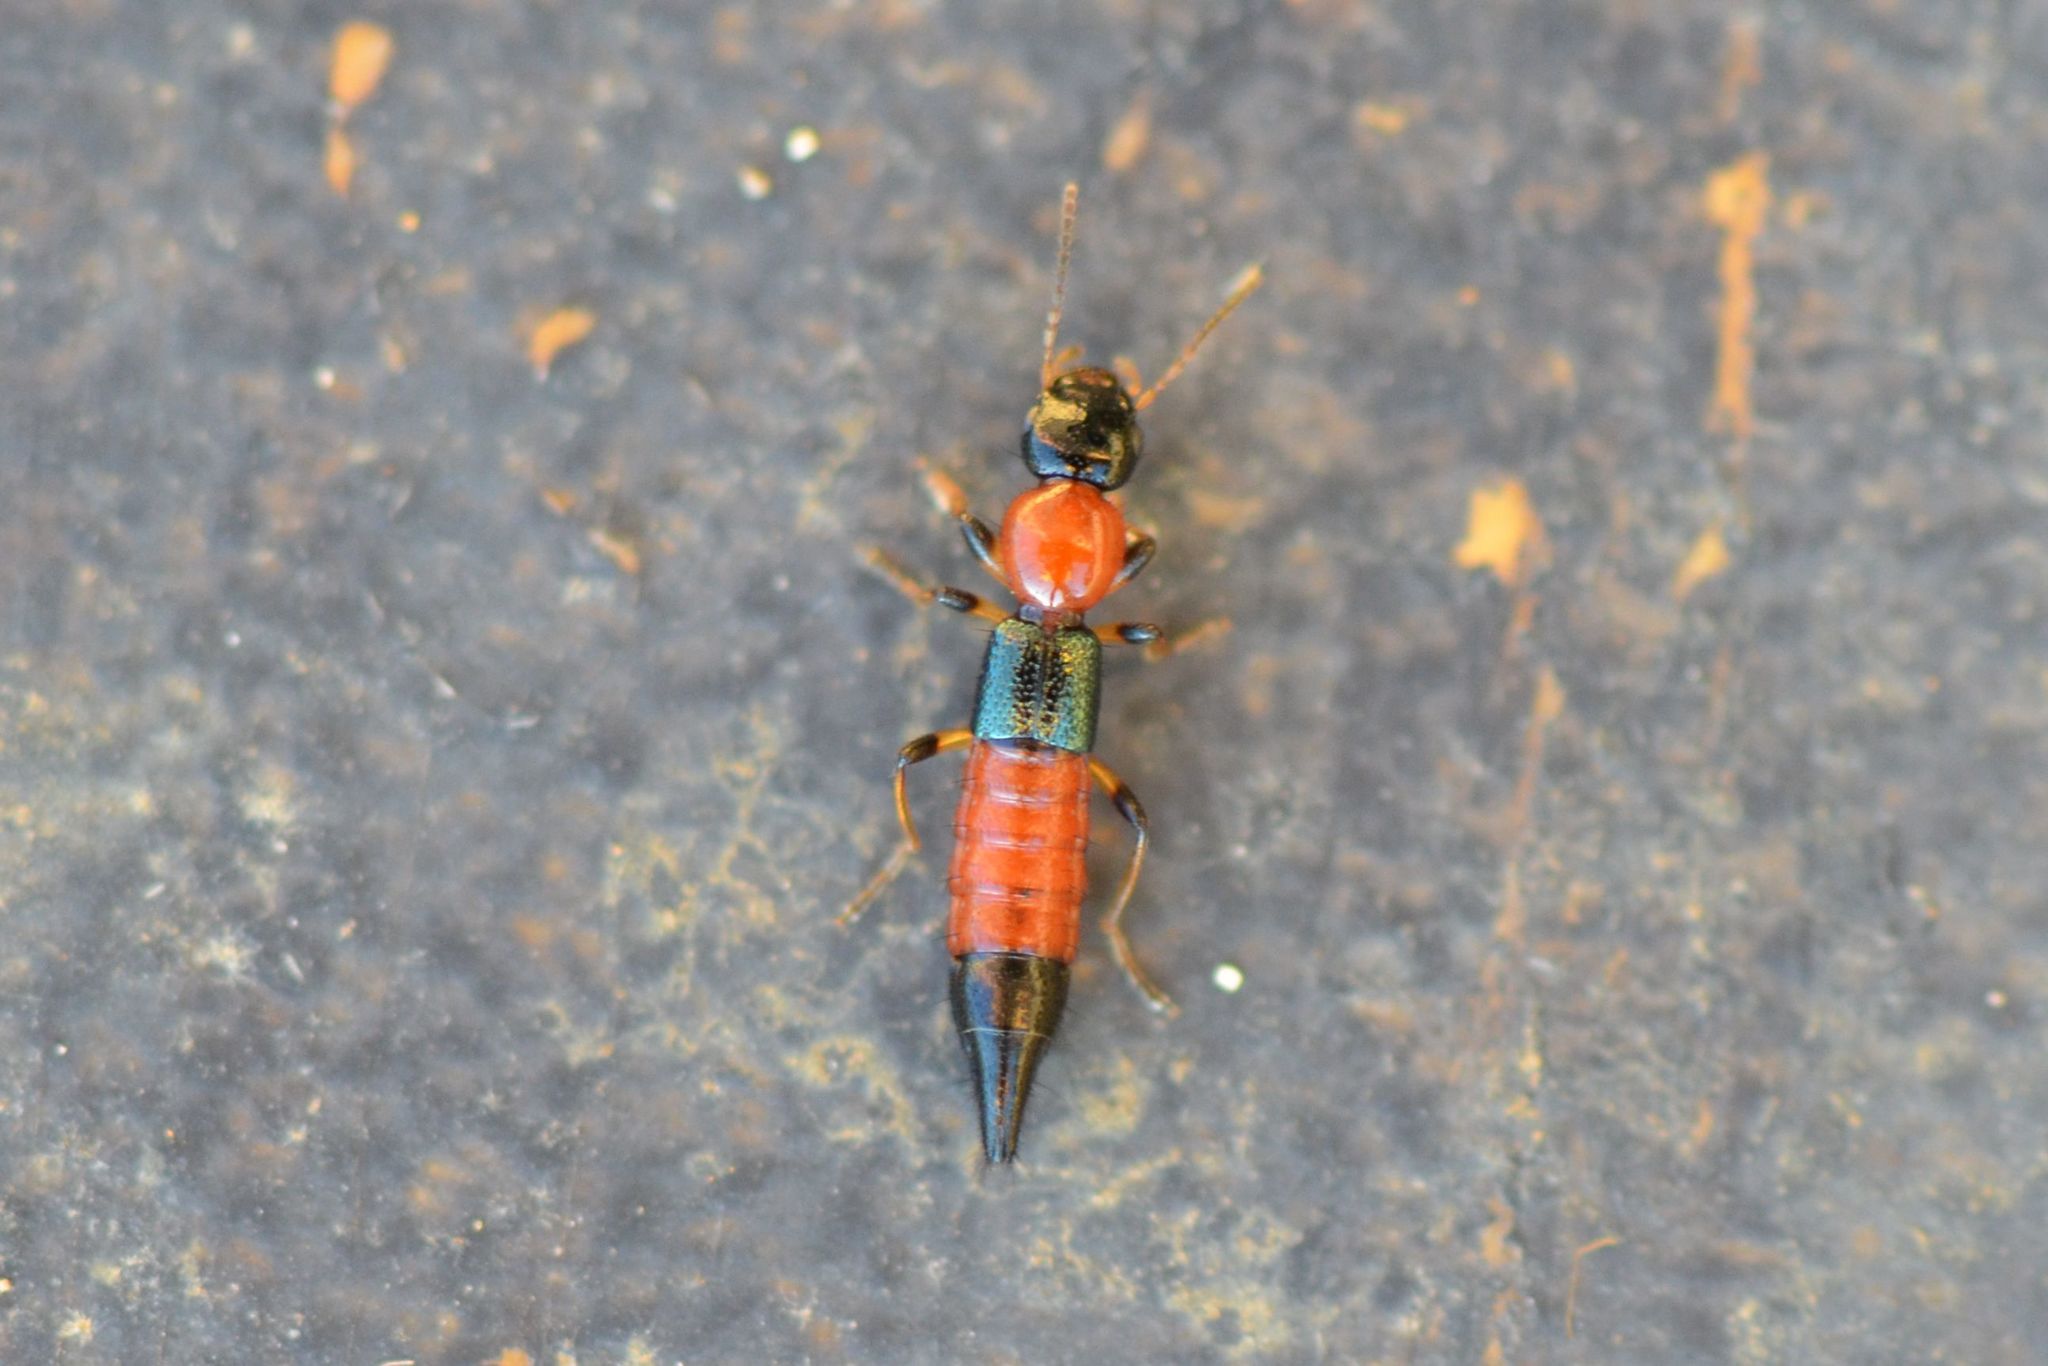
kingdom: Animalia
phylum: Arthropoda
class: Insecta
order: Coleoptera
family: Staphylinidae
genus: Paederus
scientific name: Paederus littoralis
